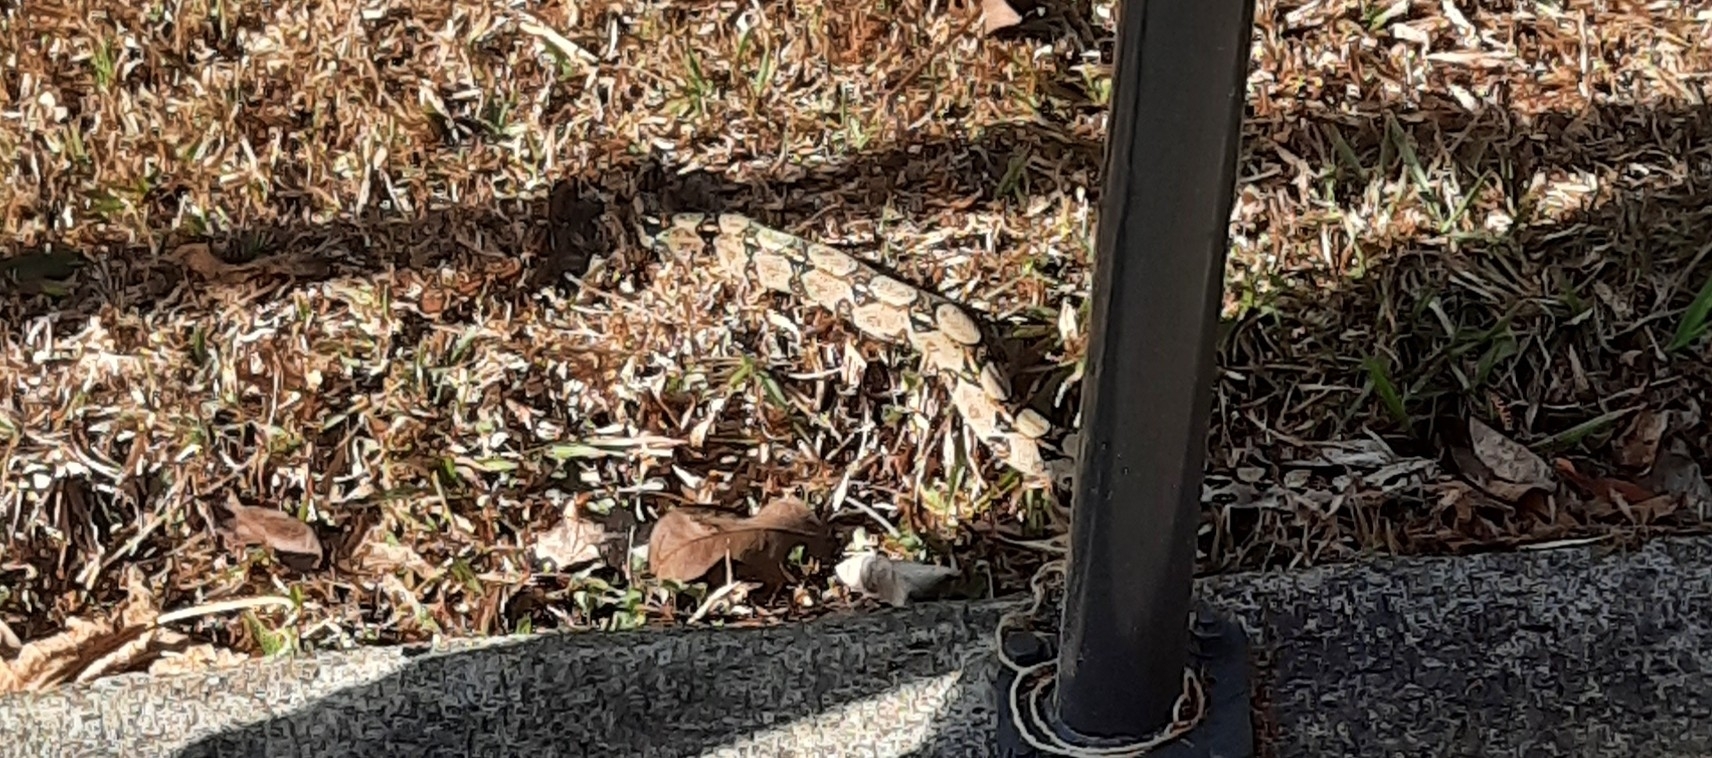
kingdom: Animalia
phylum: Chordata
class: Squamata
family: Boidae
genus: Boa
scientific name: Boa imperator
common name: Central american boa
